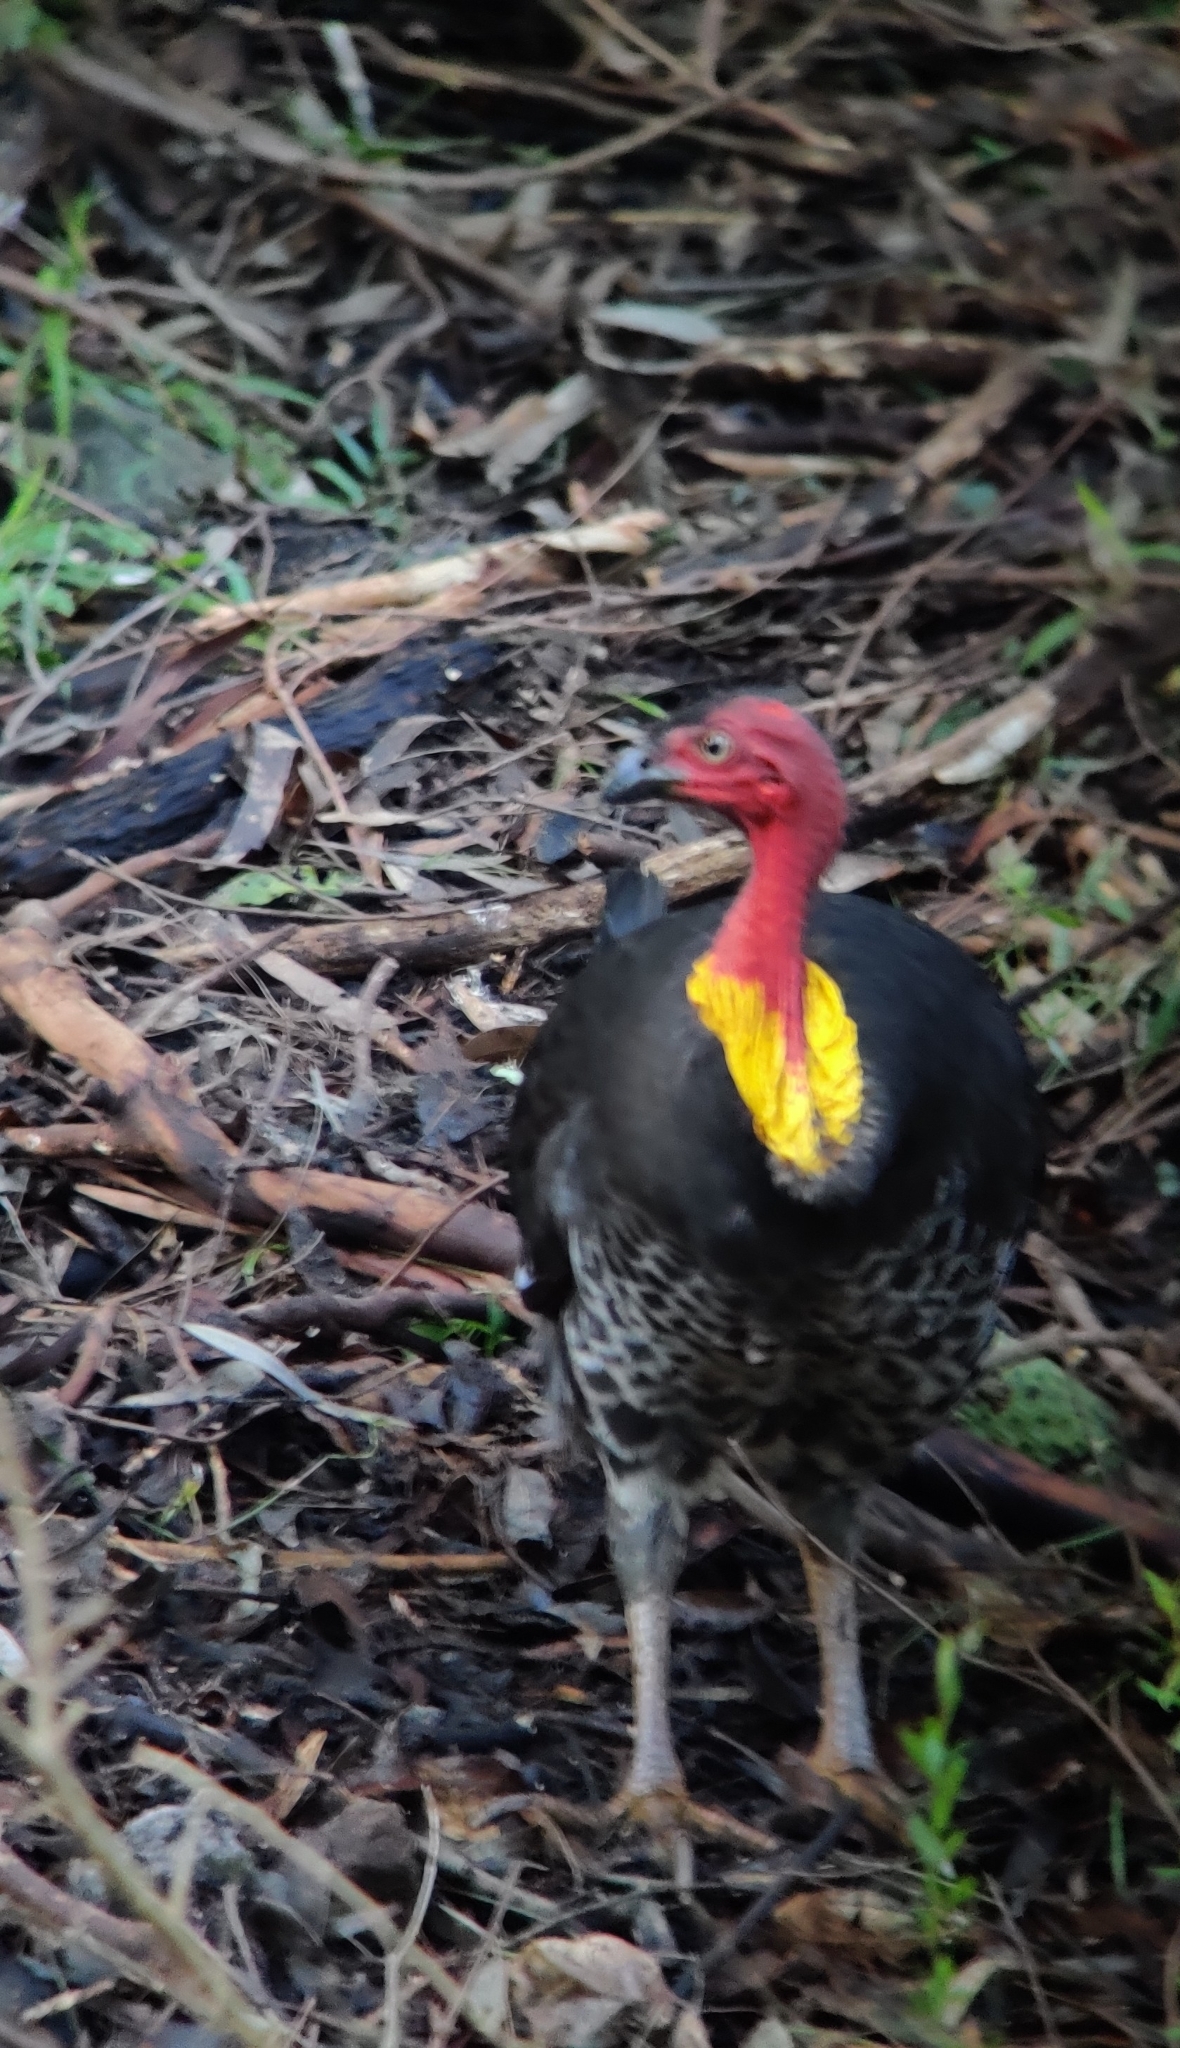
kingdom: Animalia
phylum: Chordata
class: Aves
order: Galliformes
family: Megapodiidae
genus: Alectura
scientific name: Alectura lathami
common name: Australian brushturkey
